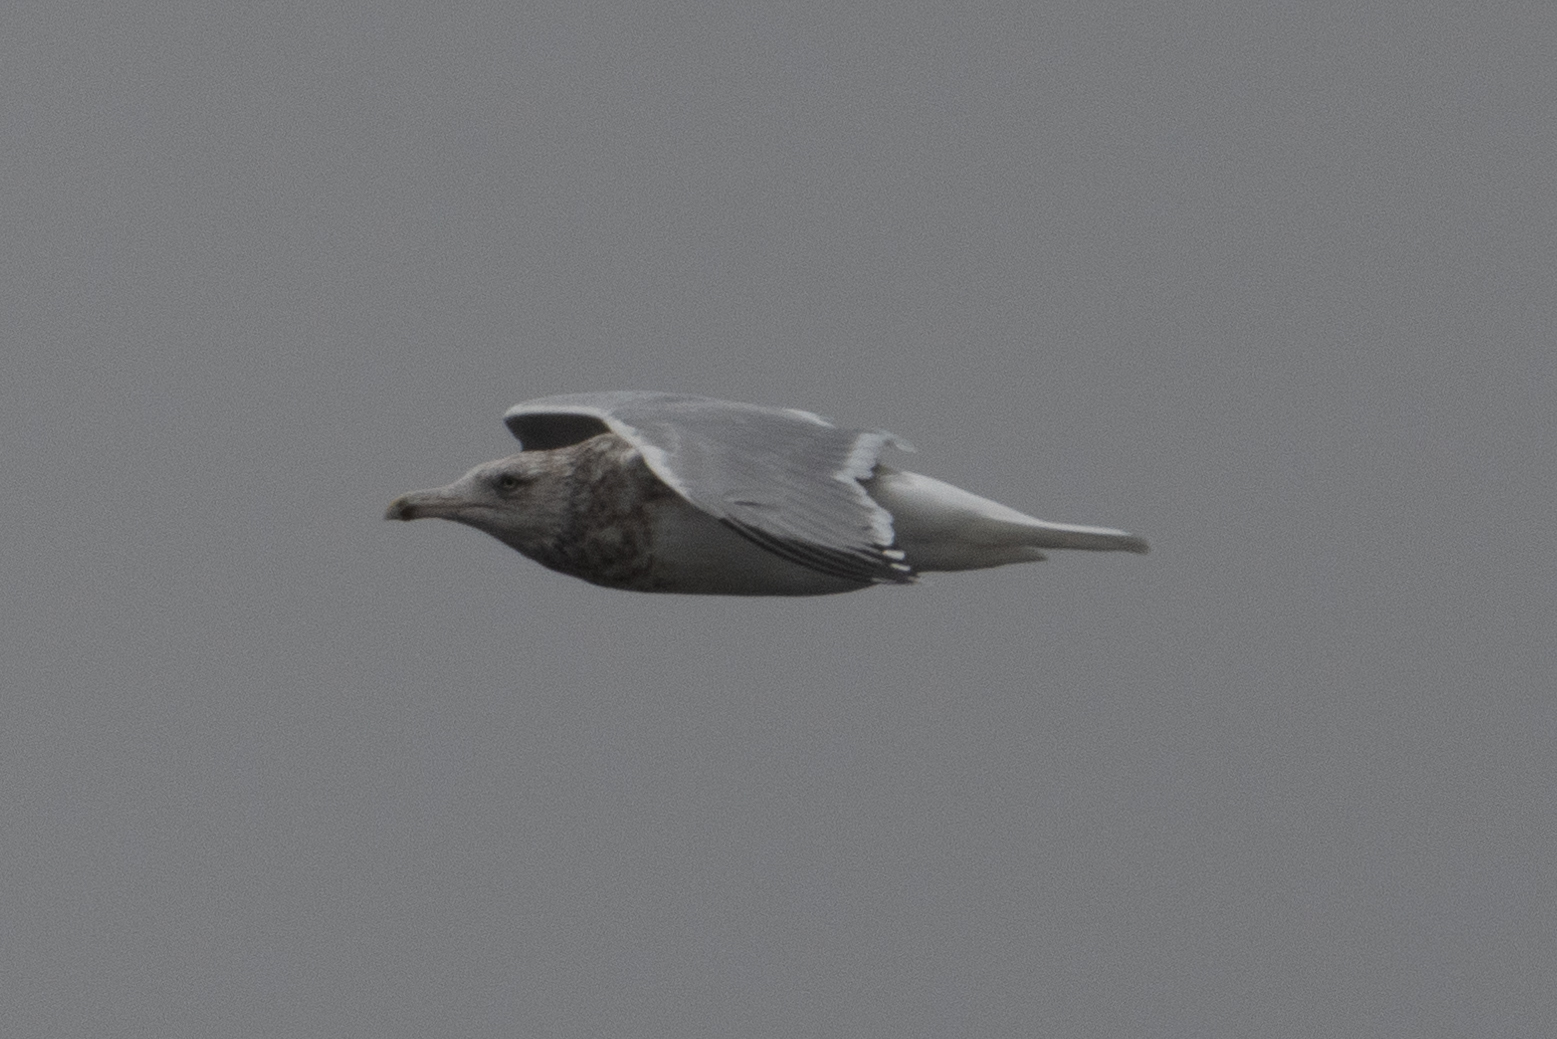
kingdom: Animalia
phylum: Chordata
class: Aves
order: Charadriiformes
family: Laridae
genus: Larus
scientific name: Larus argentatus
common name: Herring gull
